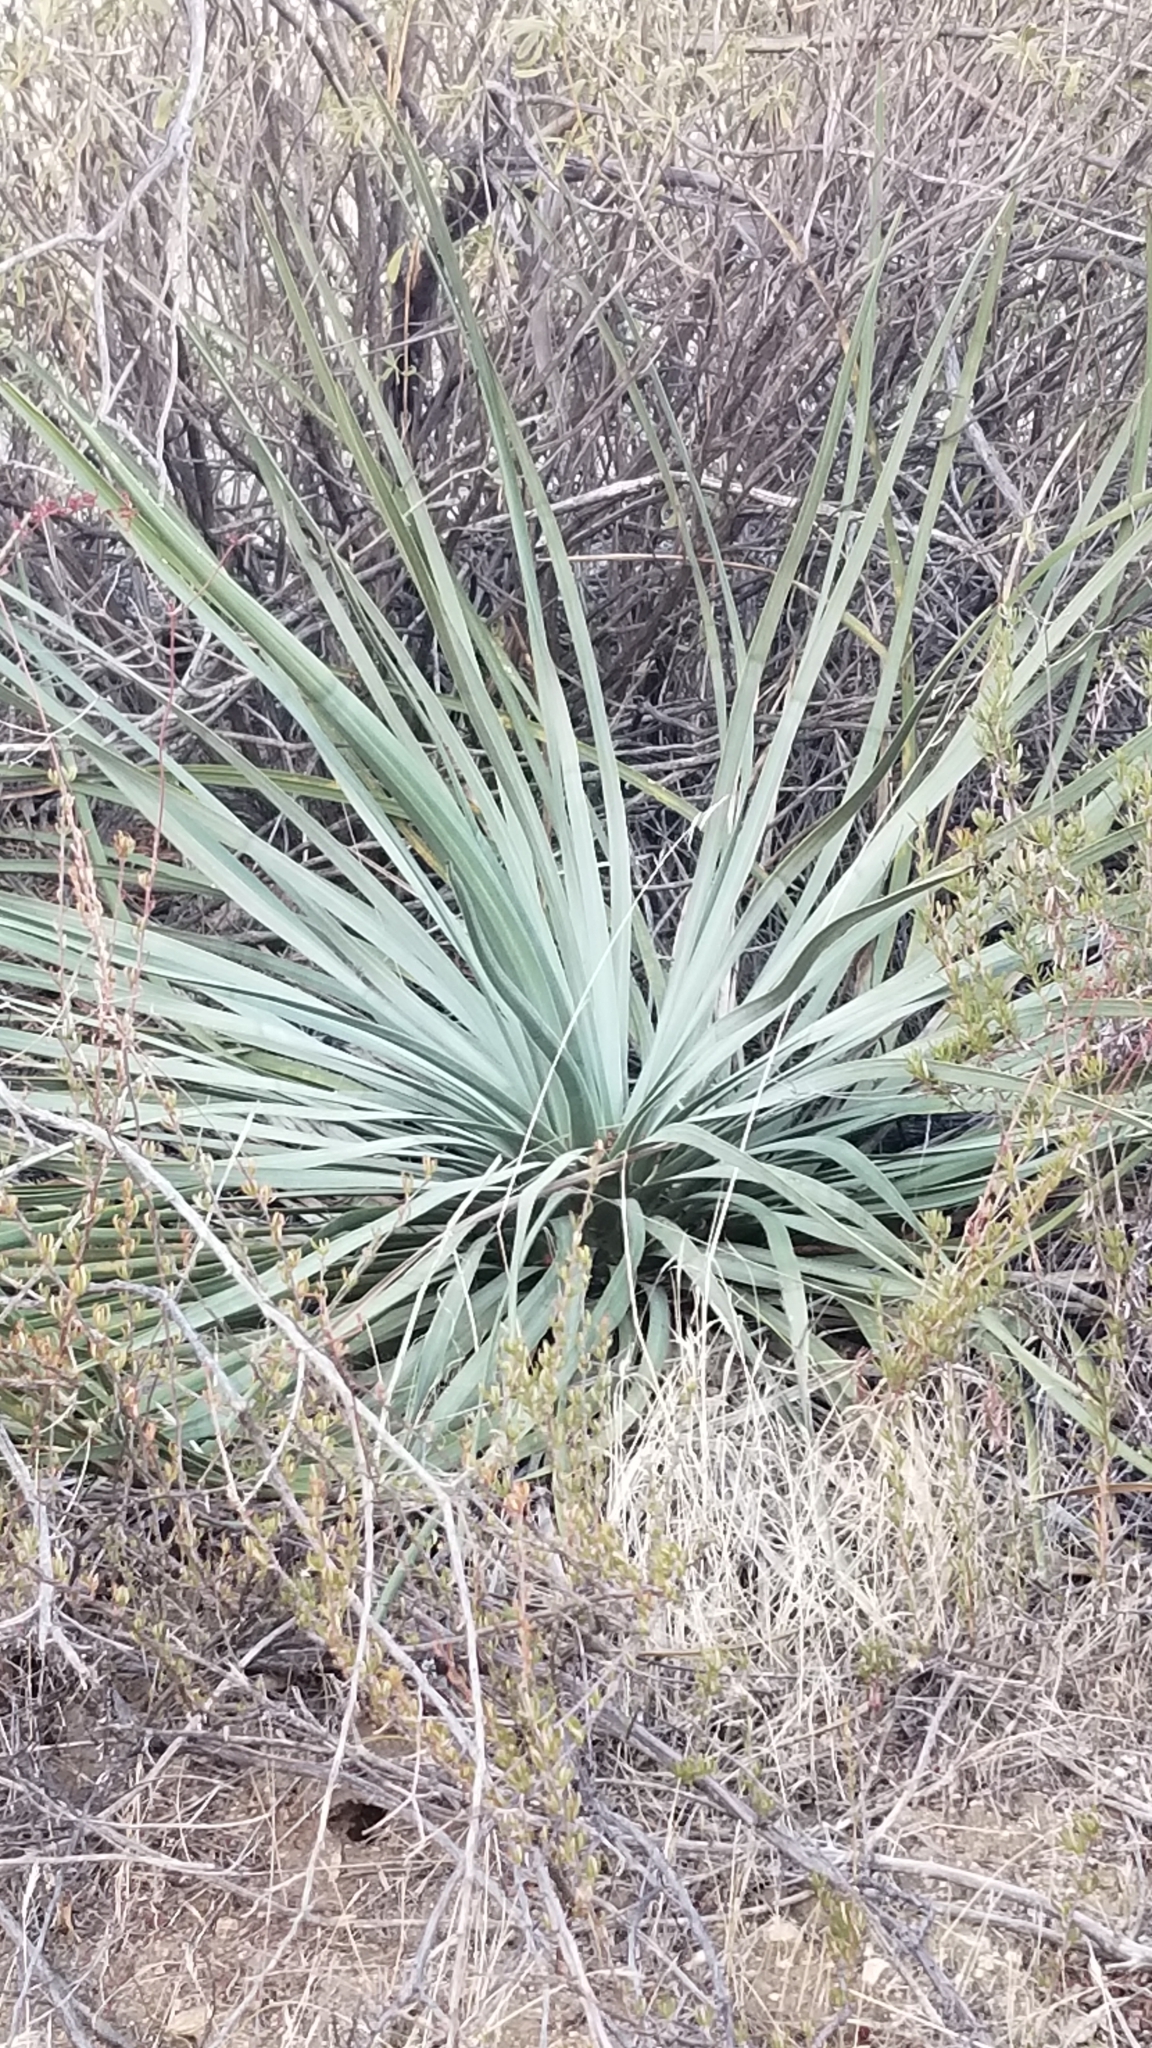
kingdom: Plantae
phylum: Tracheophyta
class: Liliopsida
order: Asparagales
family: Asparagaceae
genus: Hesperoyucca
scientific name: Hesperoyucca whipplei
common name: Our lord's-candle
